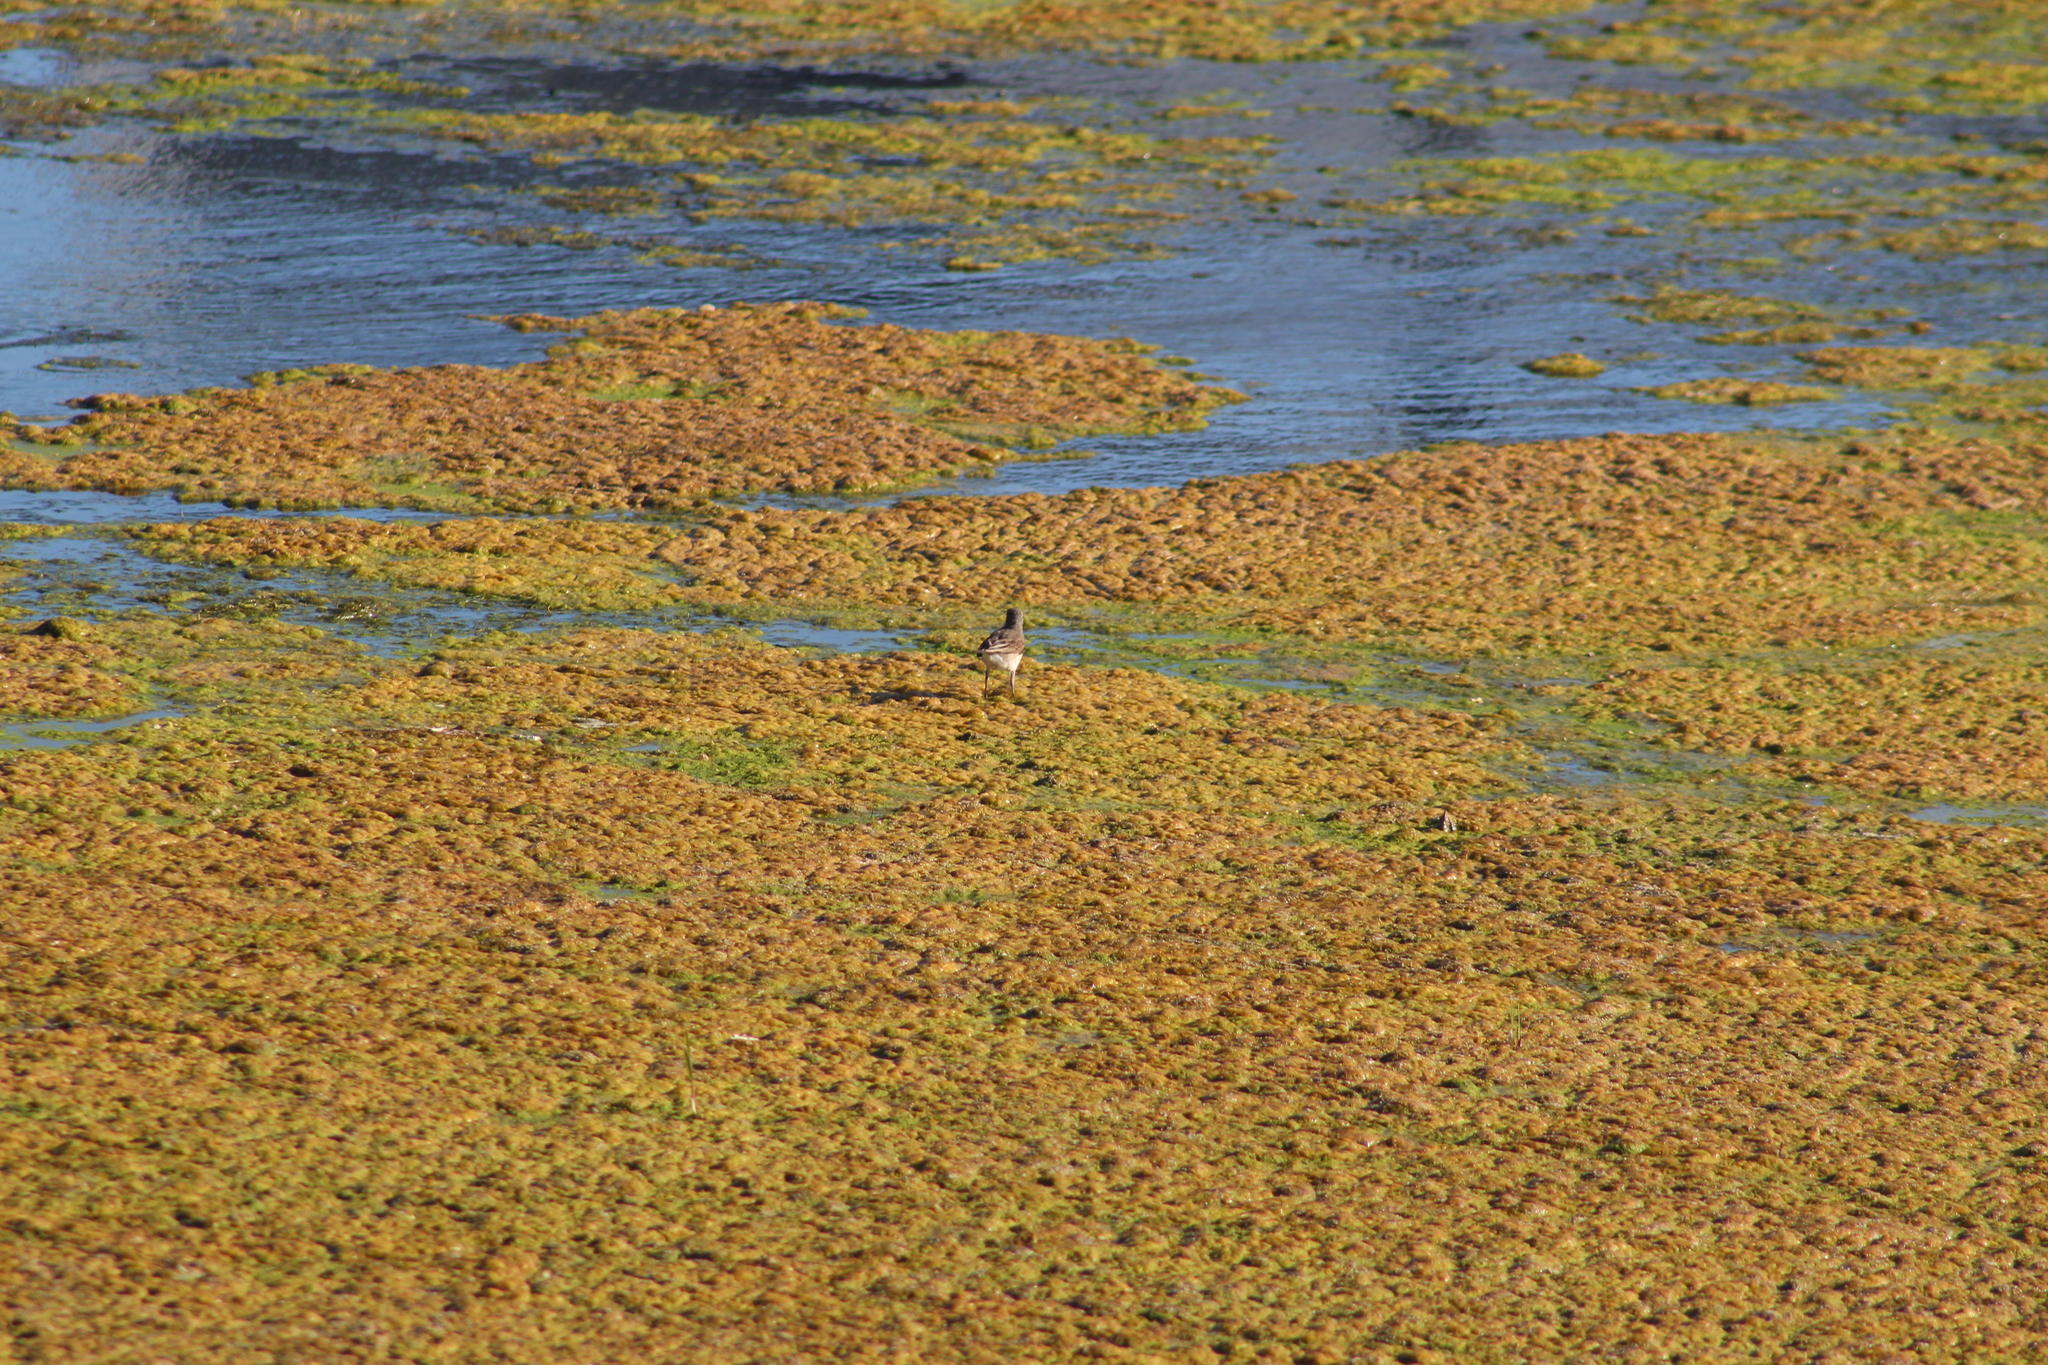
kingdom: Animalia
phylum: Chordata
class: Aves
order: Passeriformes
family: Motacillidae
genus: Motacilla
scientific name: Motacilla capensis
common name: Cape wagtail
